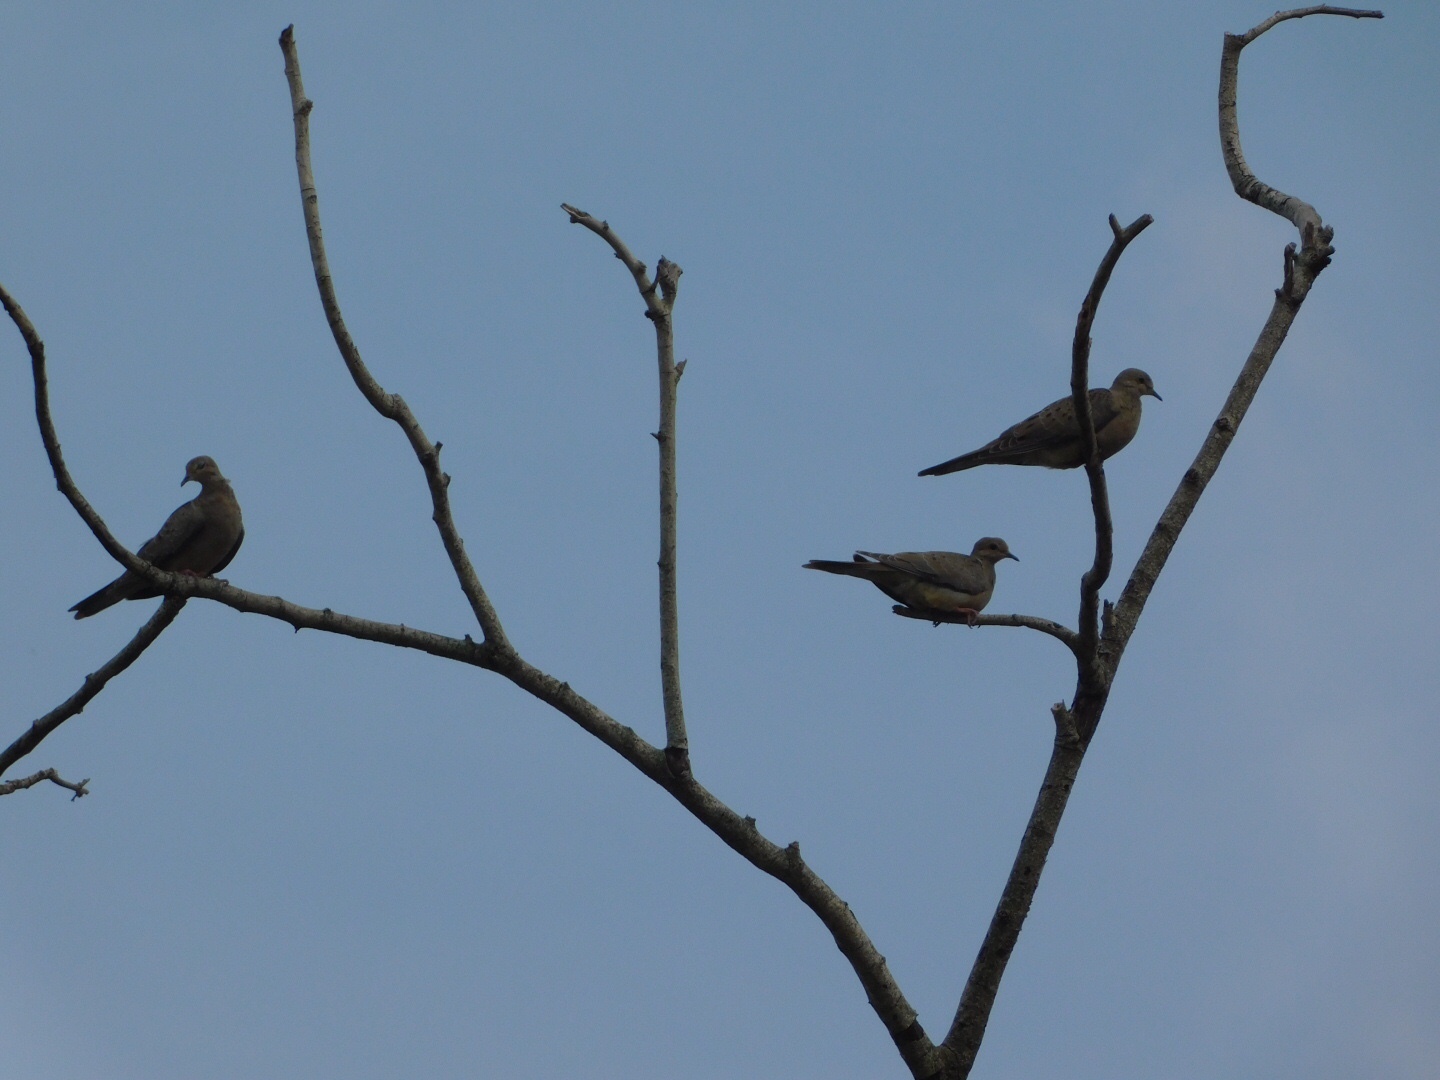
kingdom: Animalia
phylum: Chordata
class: Aves
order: Columbiformes
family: Columbidae
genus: Zenaida
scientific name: Zenaida macroura
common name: Mourning dove
